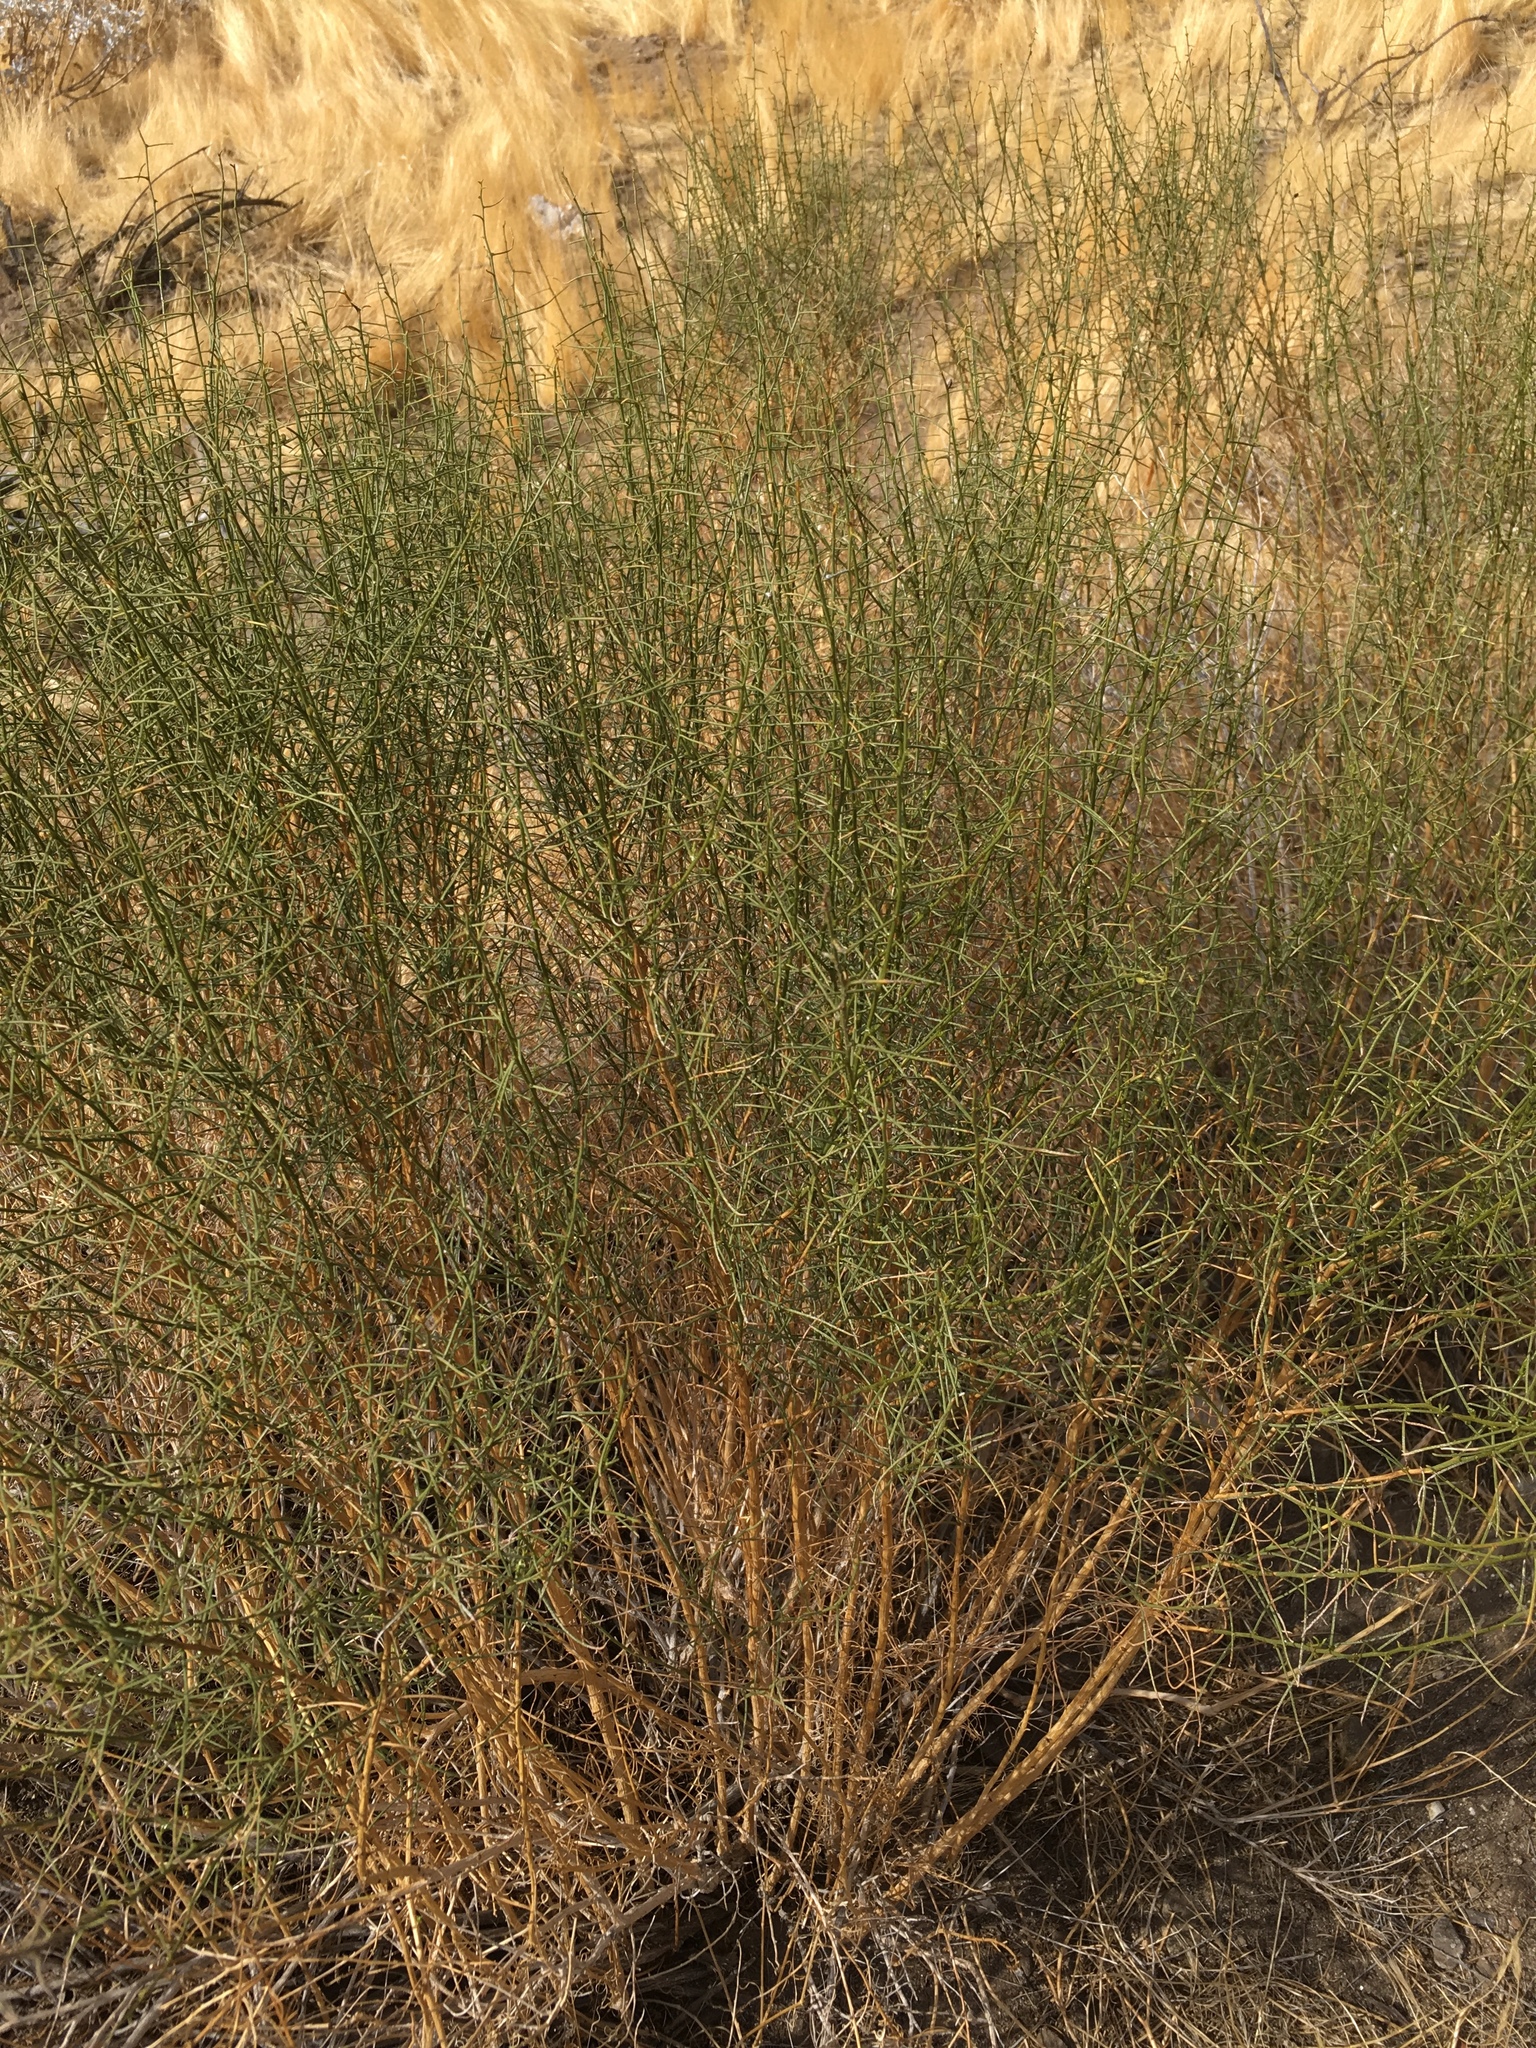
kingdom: Plantae
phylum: Tracheophyta
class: Magnoliopsida
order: Asterales
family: Asteraceae
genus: Ambrosia
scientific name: Ambrosia salsola
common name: Burrobrush
